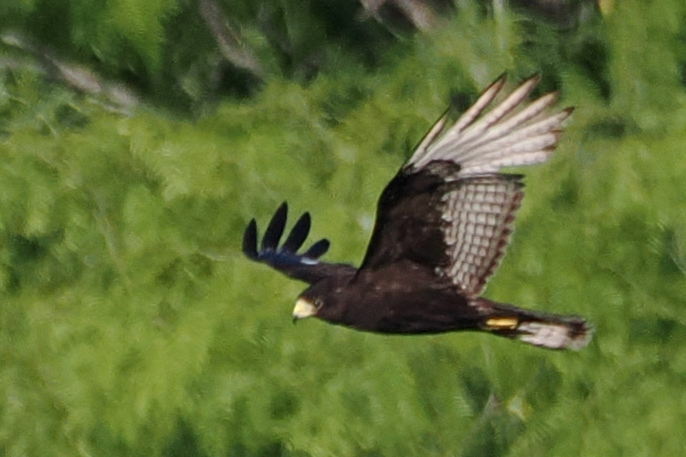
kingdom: Animalia
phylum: Chordata
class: Aves
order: Accipitriformes
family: Accipitridae
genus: Buteo
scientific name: Buteo albonotatus
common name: Zone-tailed hawk
